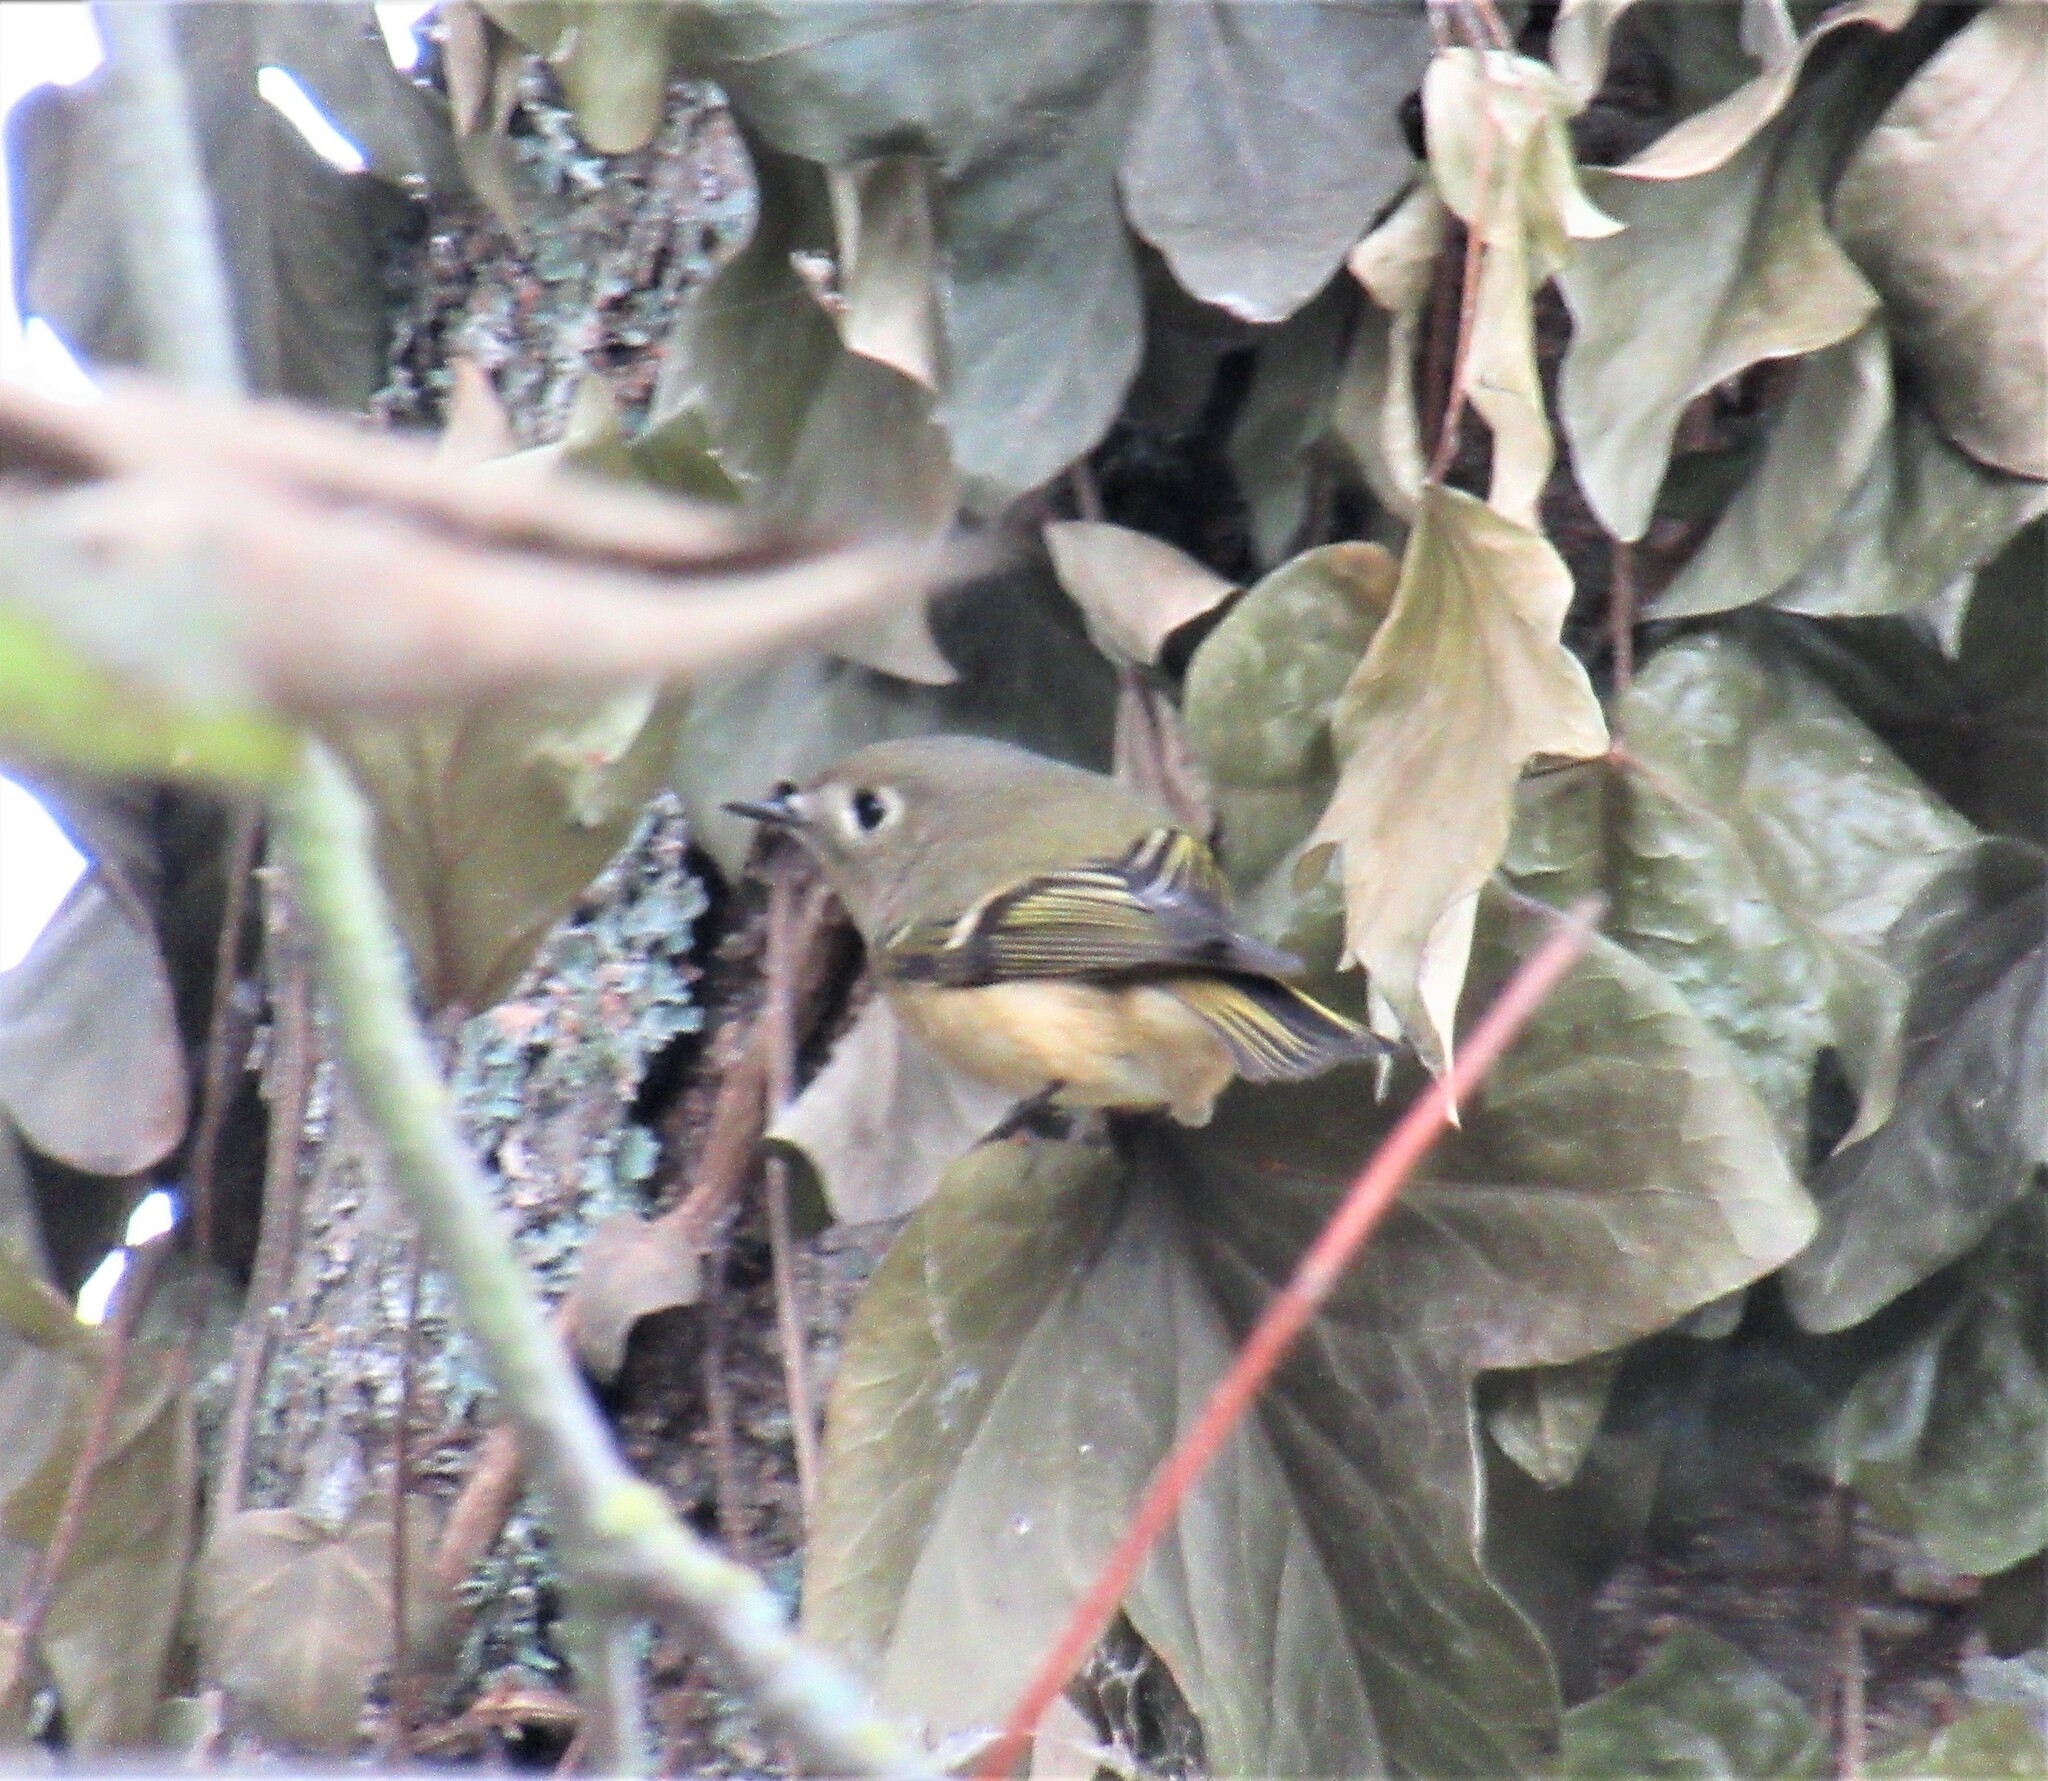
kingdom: Animalia
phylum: Chordata
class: Aves
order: Passeriformes
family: Regulidae
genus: Regulus
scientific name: Regulus calendula
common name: Ruby-crowned kinglet
